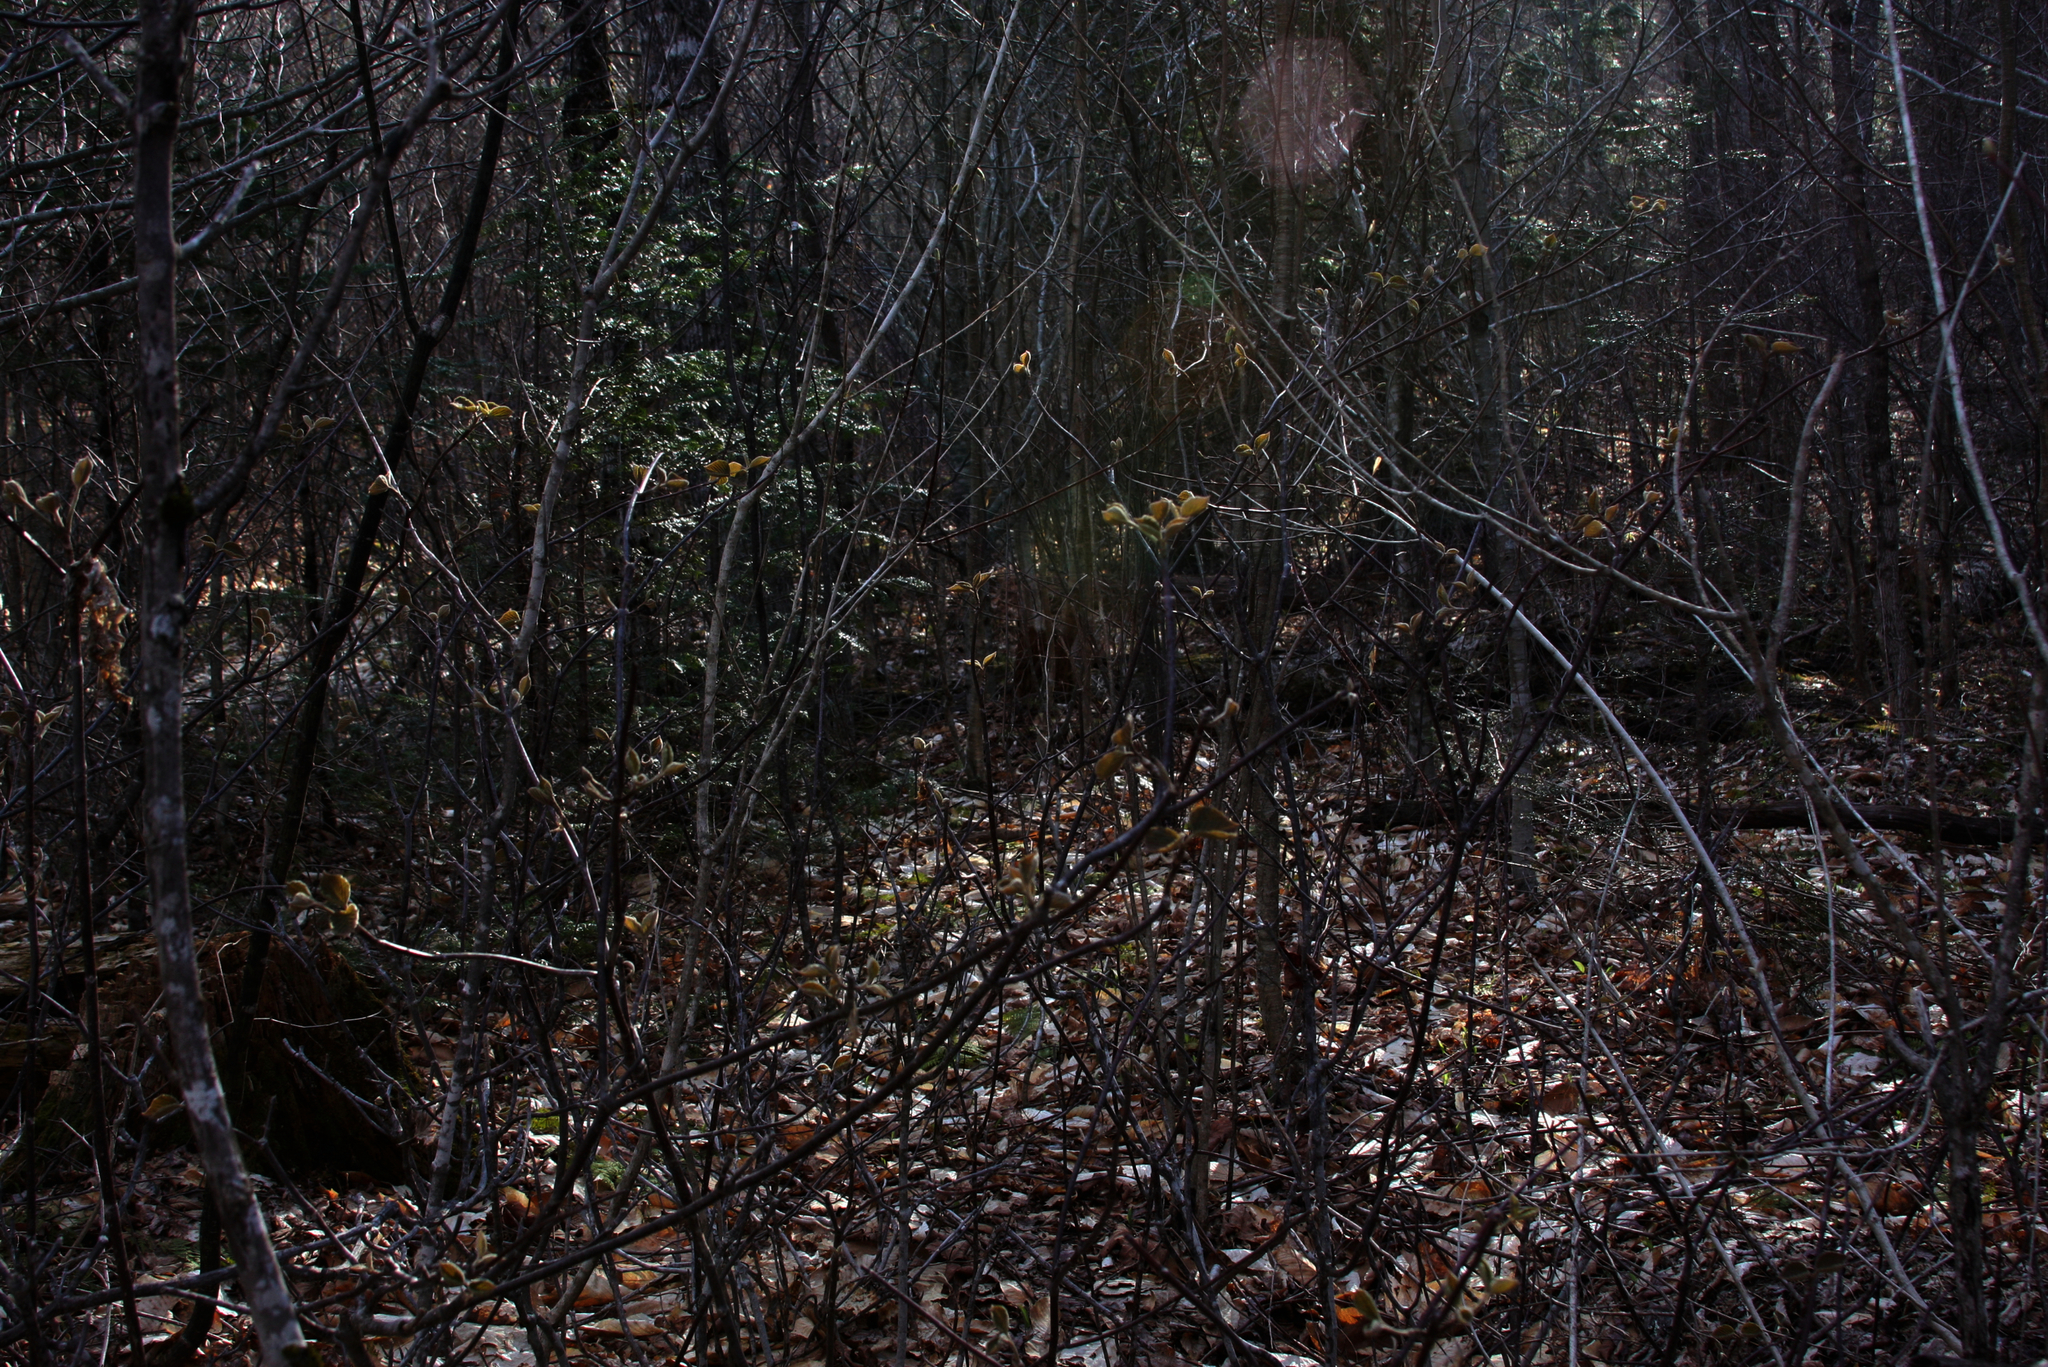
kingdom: Plantae
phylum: Tracheophyta
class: Magnoliopsida
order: Dipsacales
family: Viburnaceae
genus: Viburnum
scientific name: Viburnum lantanoides
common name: Hobblebush
